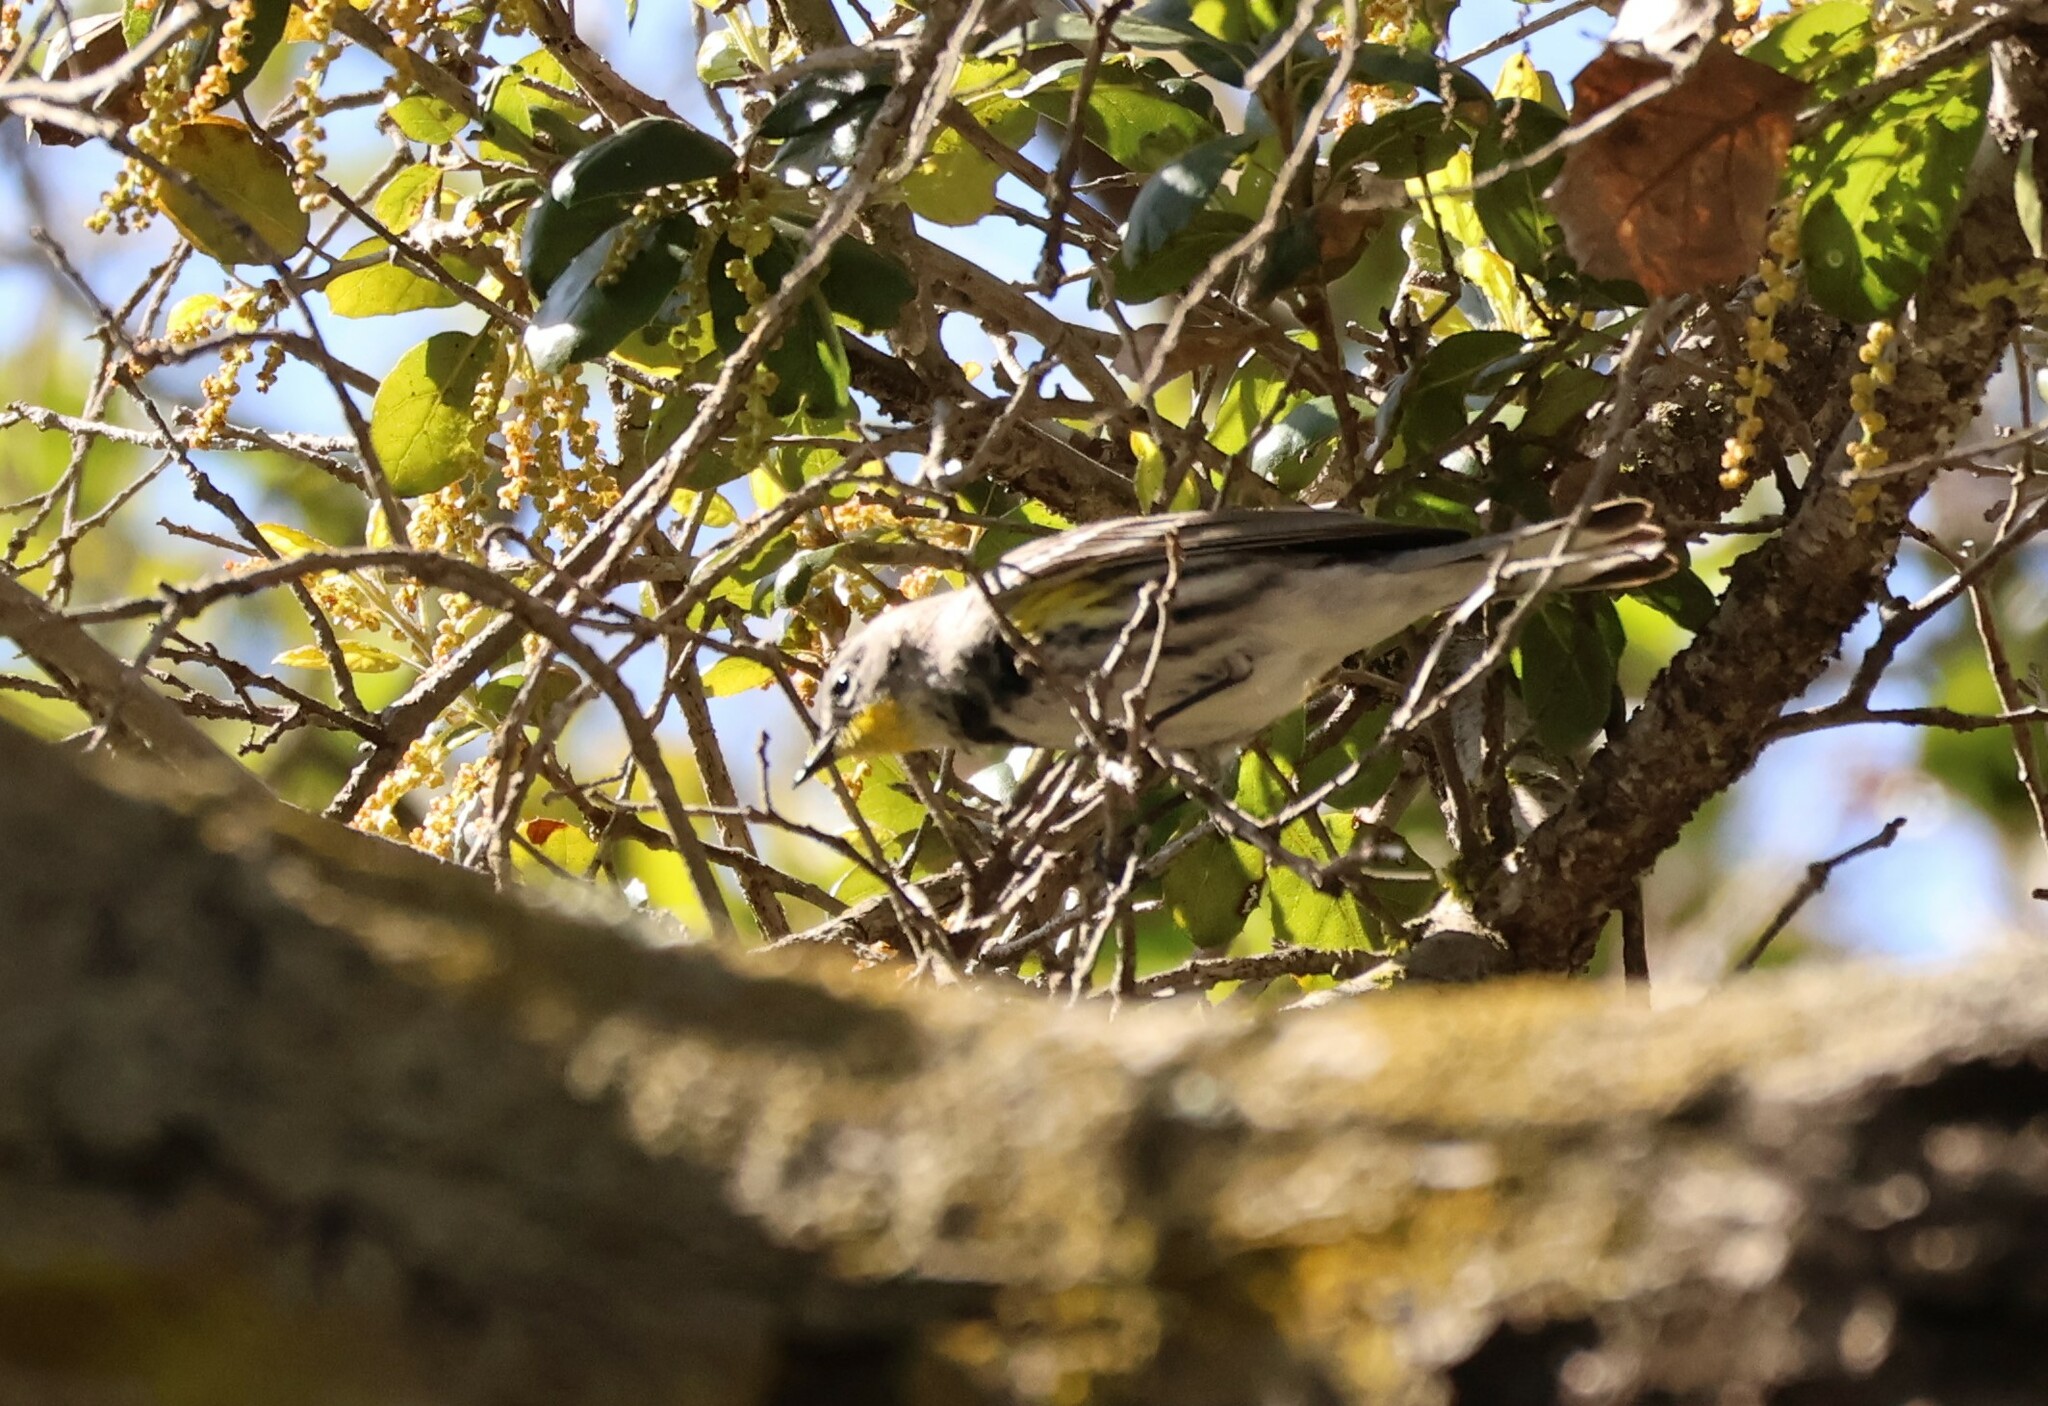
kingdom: Animalia
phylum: Chordata
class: Aves
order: Passeriformes
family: Parulidae
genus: Setophaga
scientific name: Setophaga auduboni
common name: Audubon's warbler
